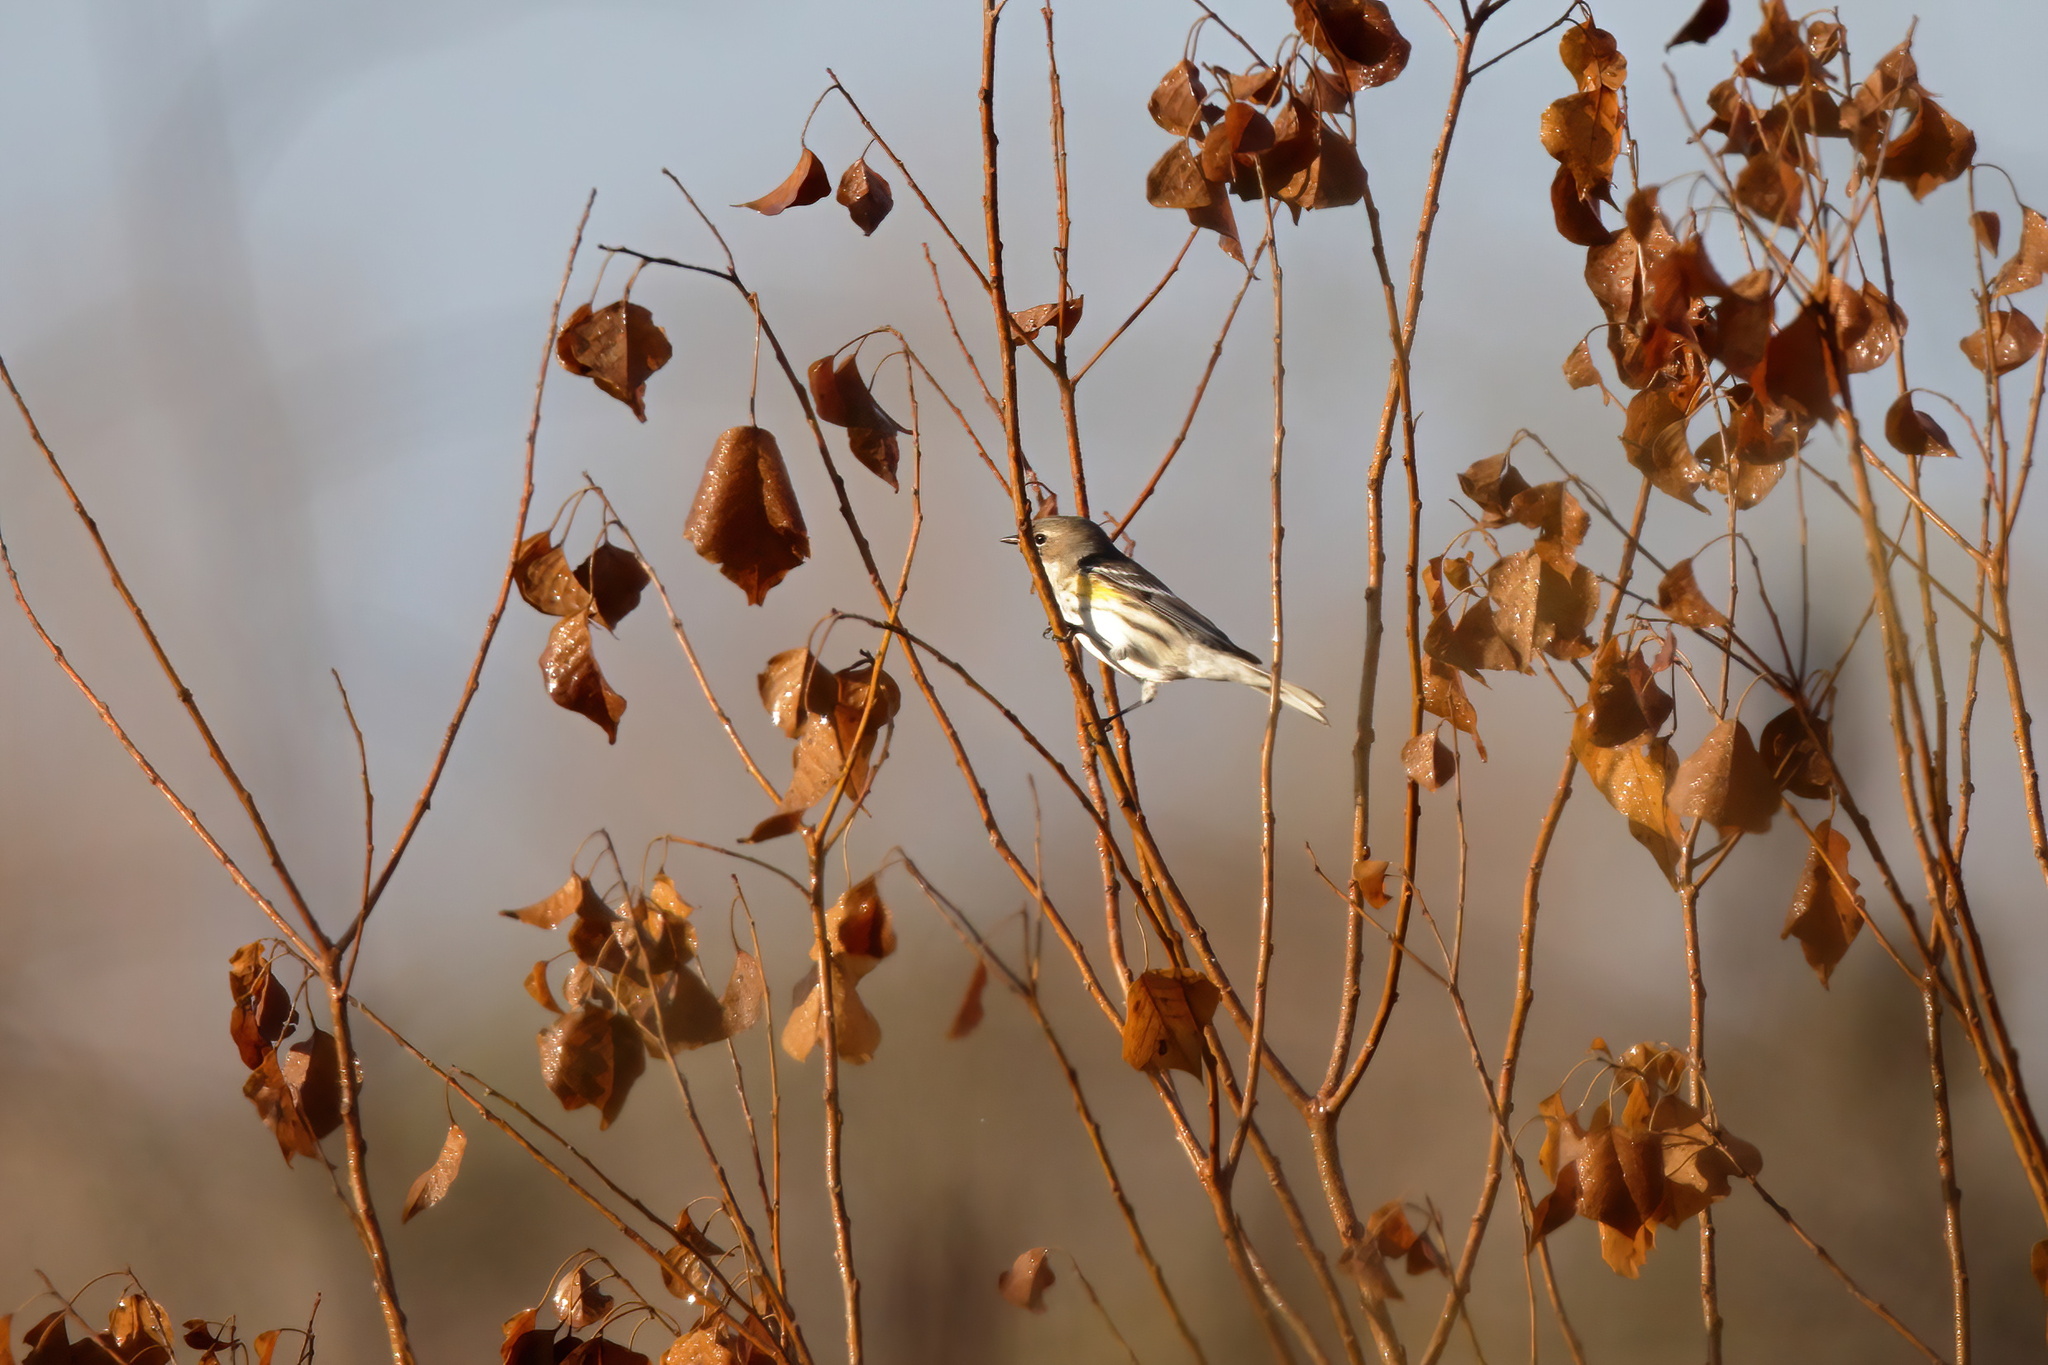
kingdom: Animalia
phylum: Chordata
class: Aves
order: Passeriformes
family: Parulidae
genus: Setophaga
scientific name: Setophaga coronata
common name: Myrtle warbler
